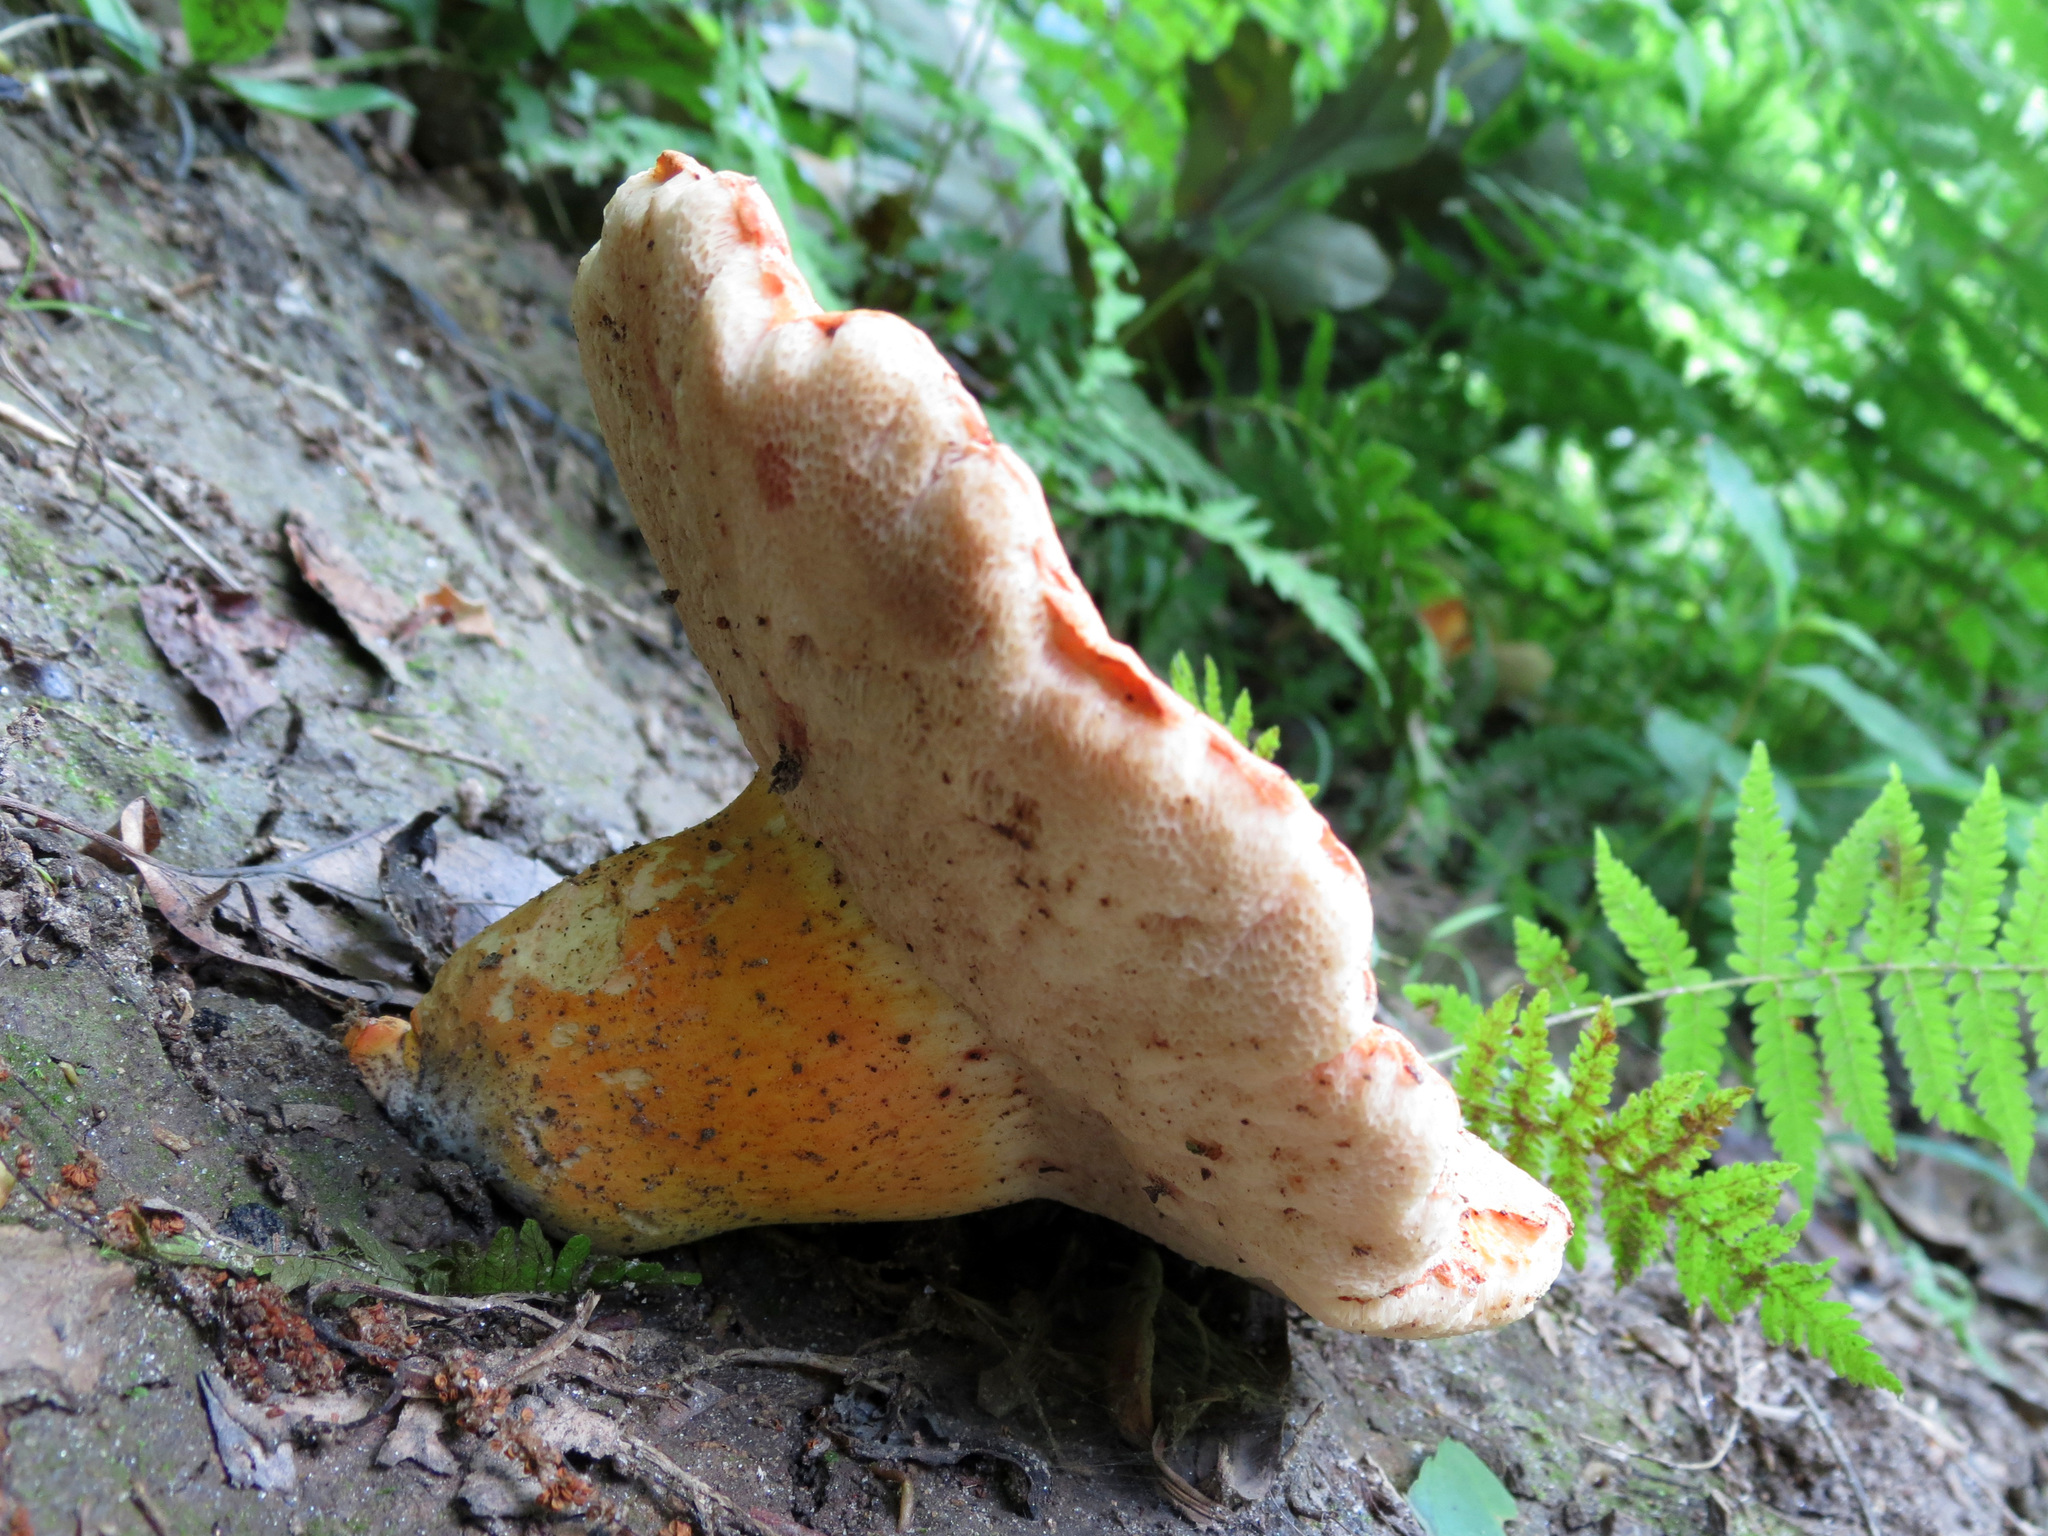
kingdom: Fungi
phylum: Basidiomycota
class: Agaricomycetes
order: Boletales
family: Boletaceae
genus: Tylopilus
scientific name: Tylopilus balloui
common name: Burnt-orange bolete
